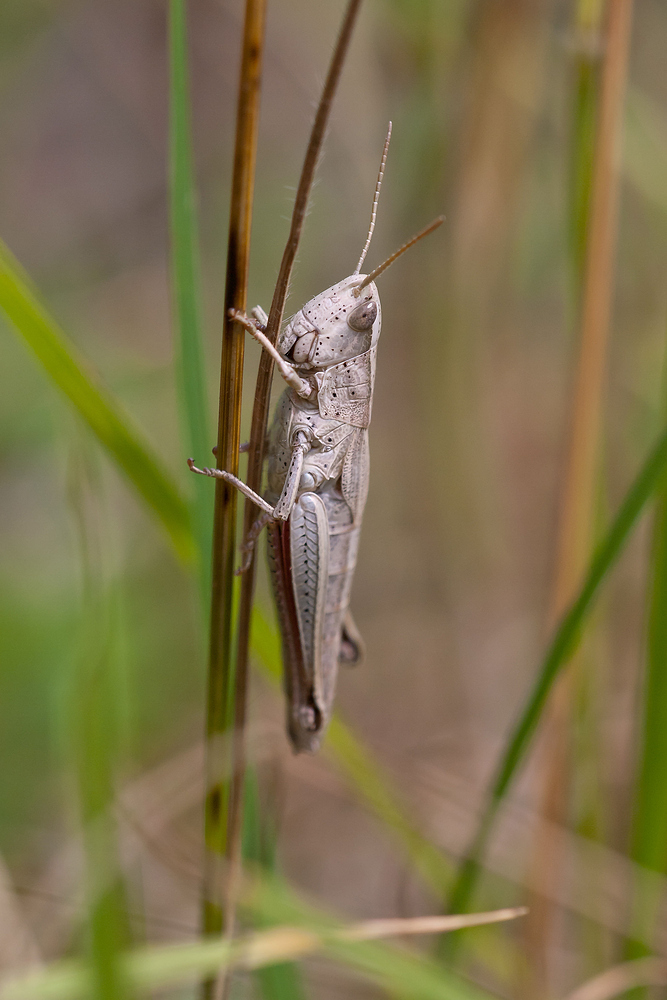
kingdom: Animalia
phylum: Arthropoda
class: Insecta
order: Orthoptera
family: Acrididae
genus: Chrysochraon
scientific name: Chrysochraon dispar
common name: Large gold grasshopper
